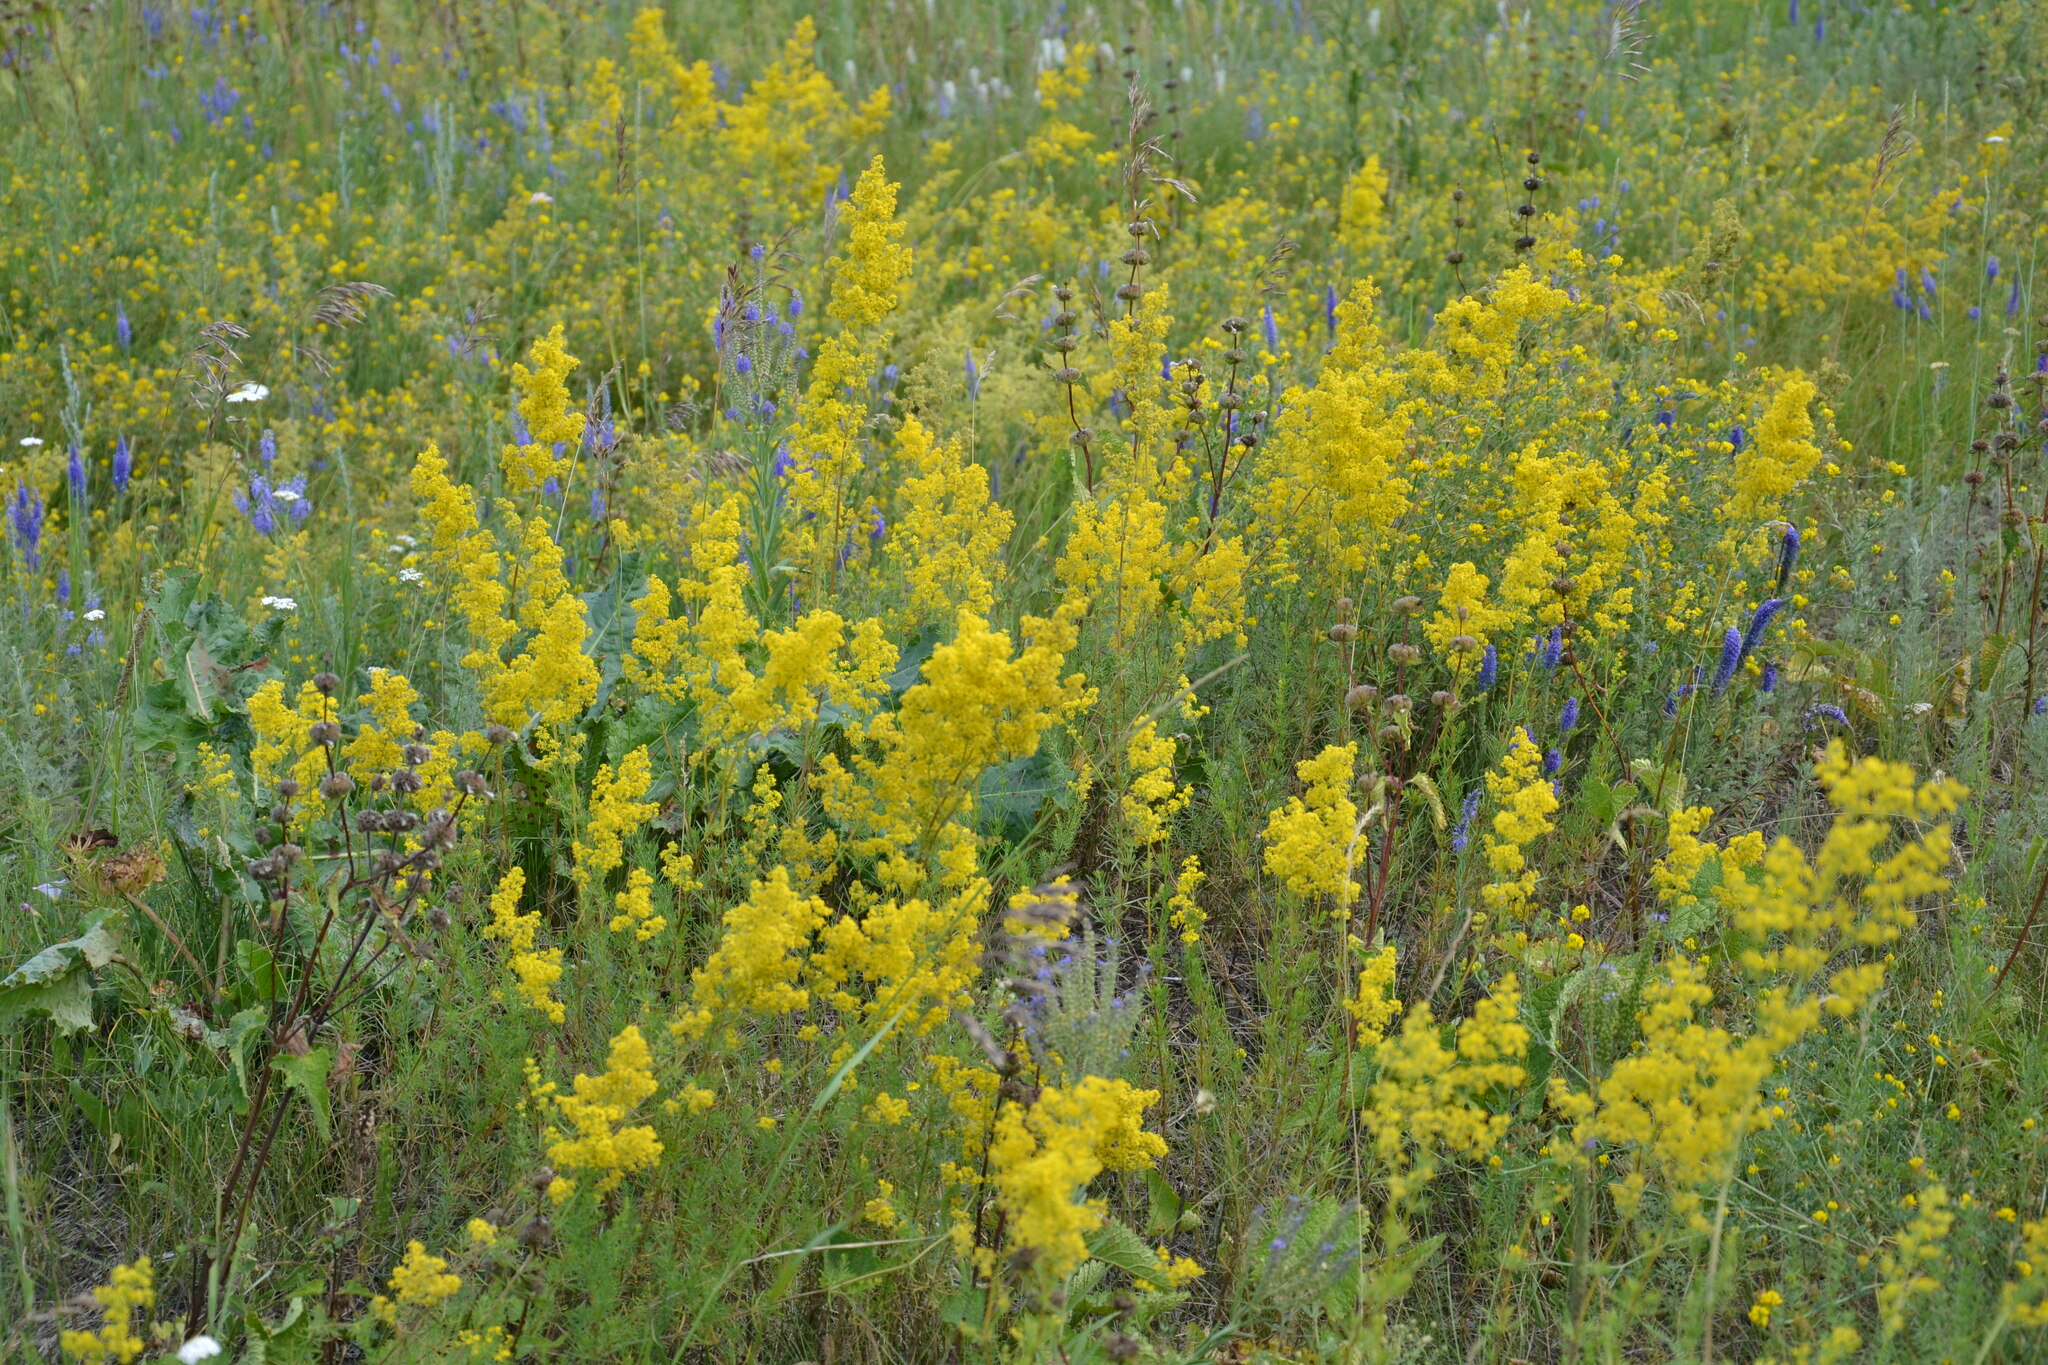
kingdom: Plantae
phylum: Tracheophyta
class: Magnoliopsida
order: Gentianales
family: Rubiaceae
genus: Galium
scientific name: Galium verum
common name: Lady's bedstraw
